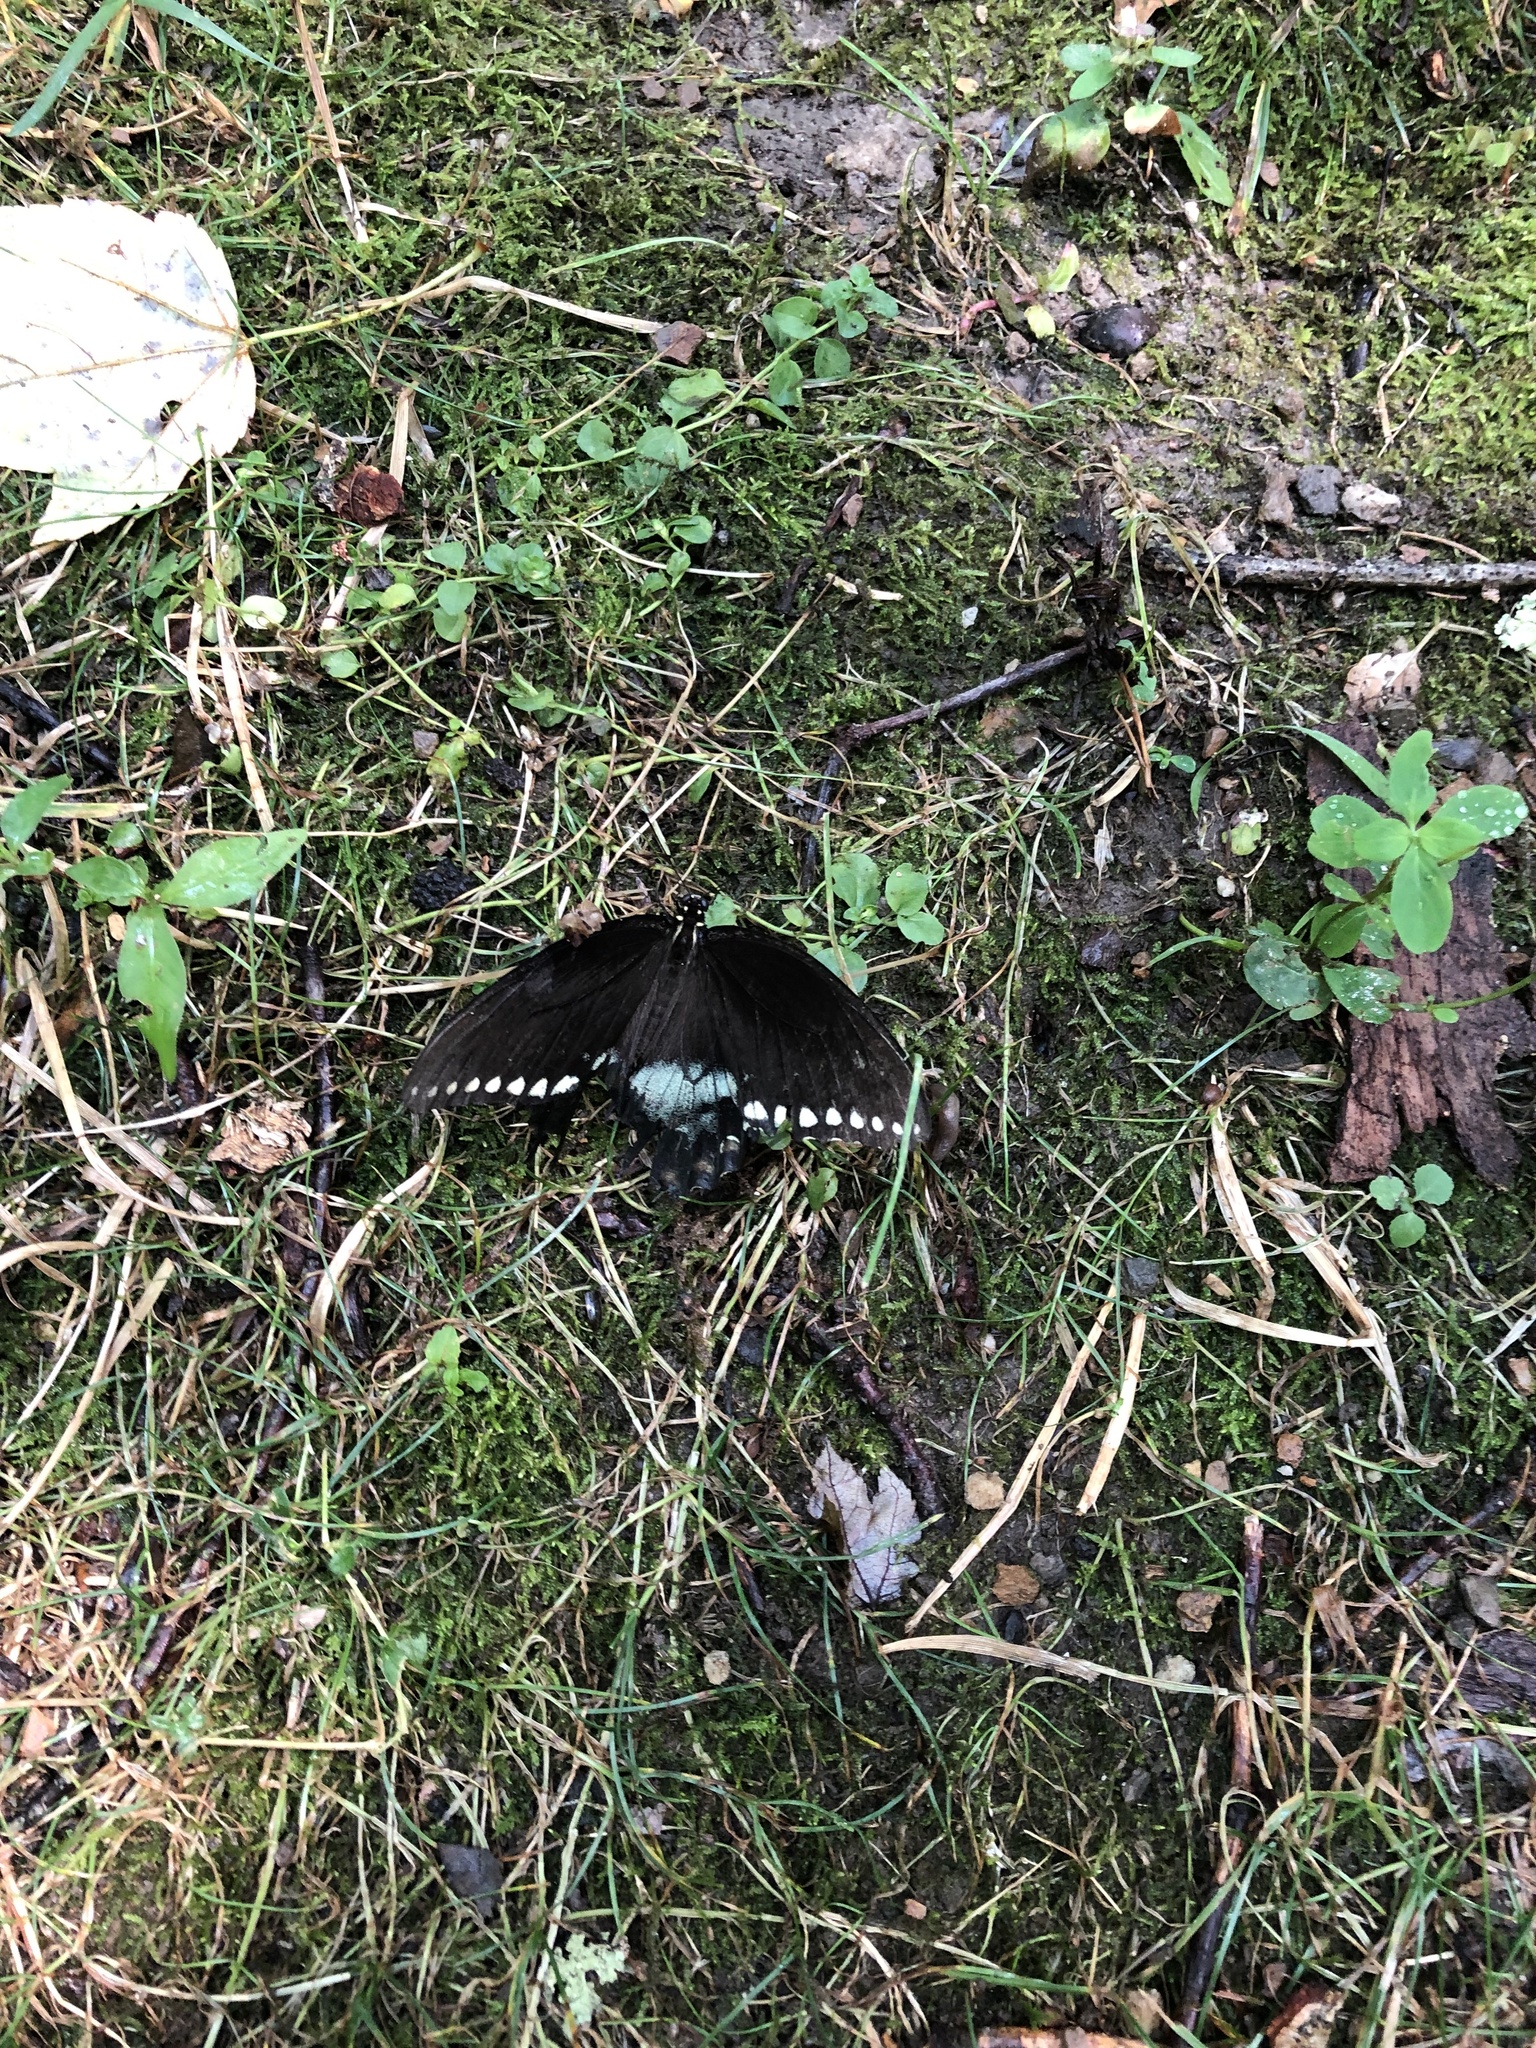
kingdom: Animalia
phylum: Arthropoda
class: Insecta
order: Lepidoptera
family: Papilionidae
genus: Papilio
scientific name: Papilio troilus
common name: Spicebush swallowtail
